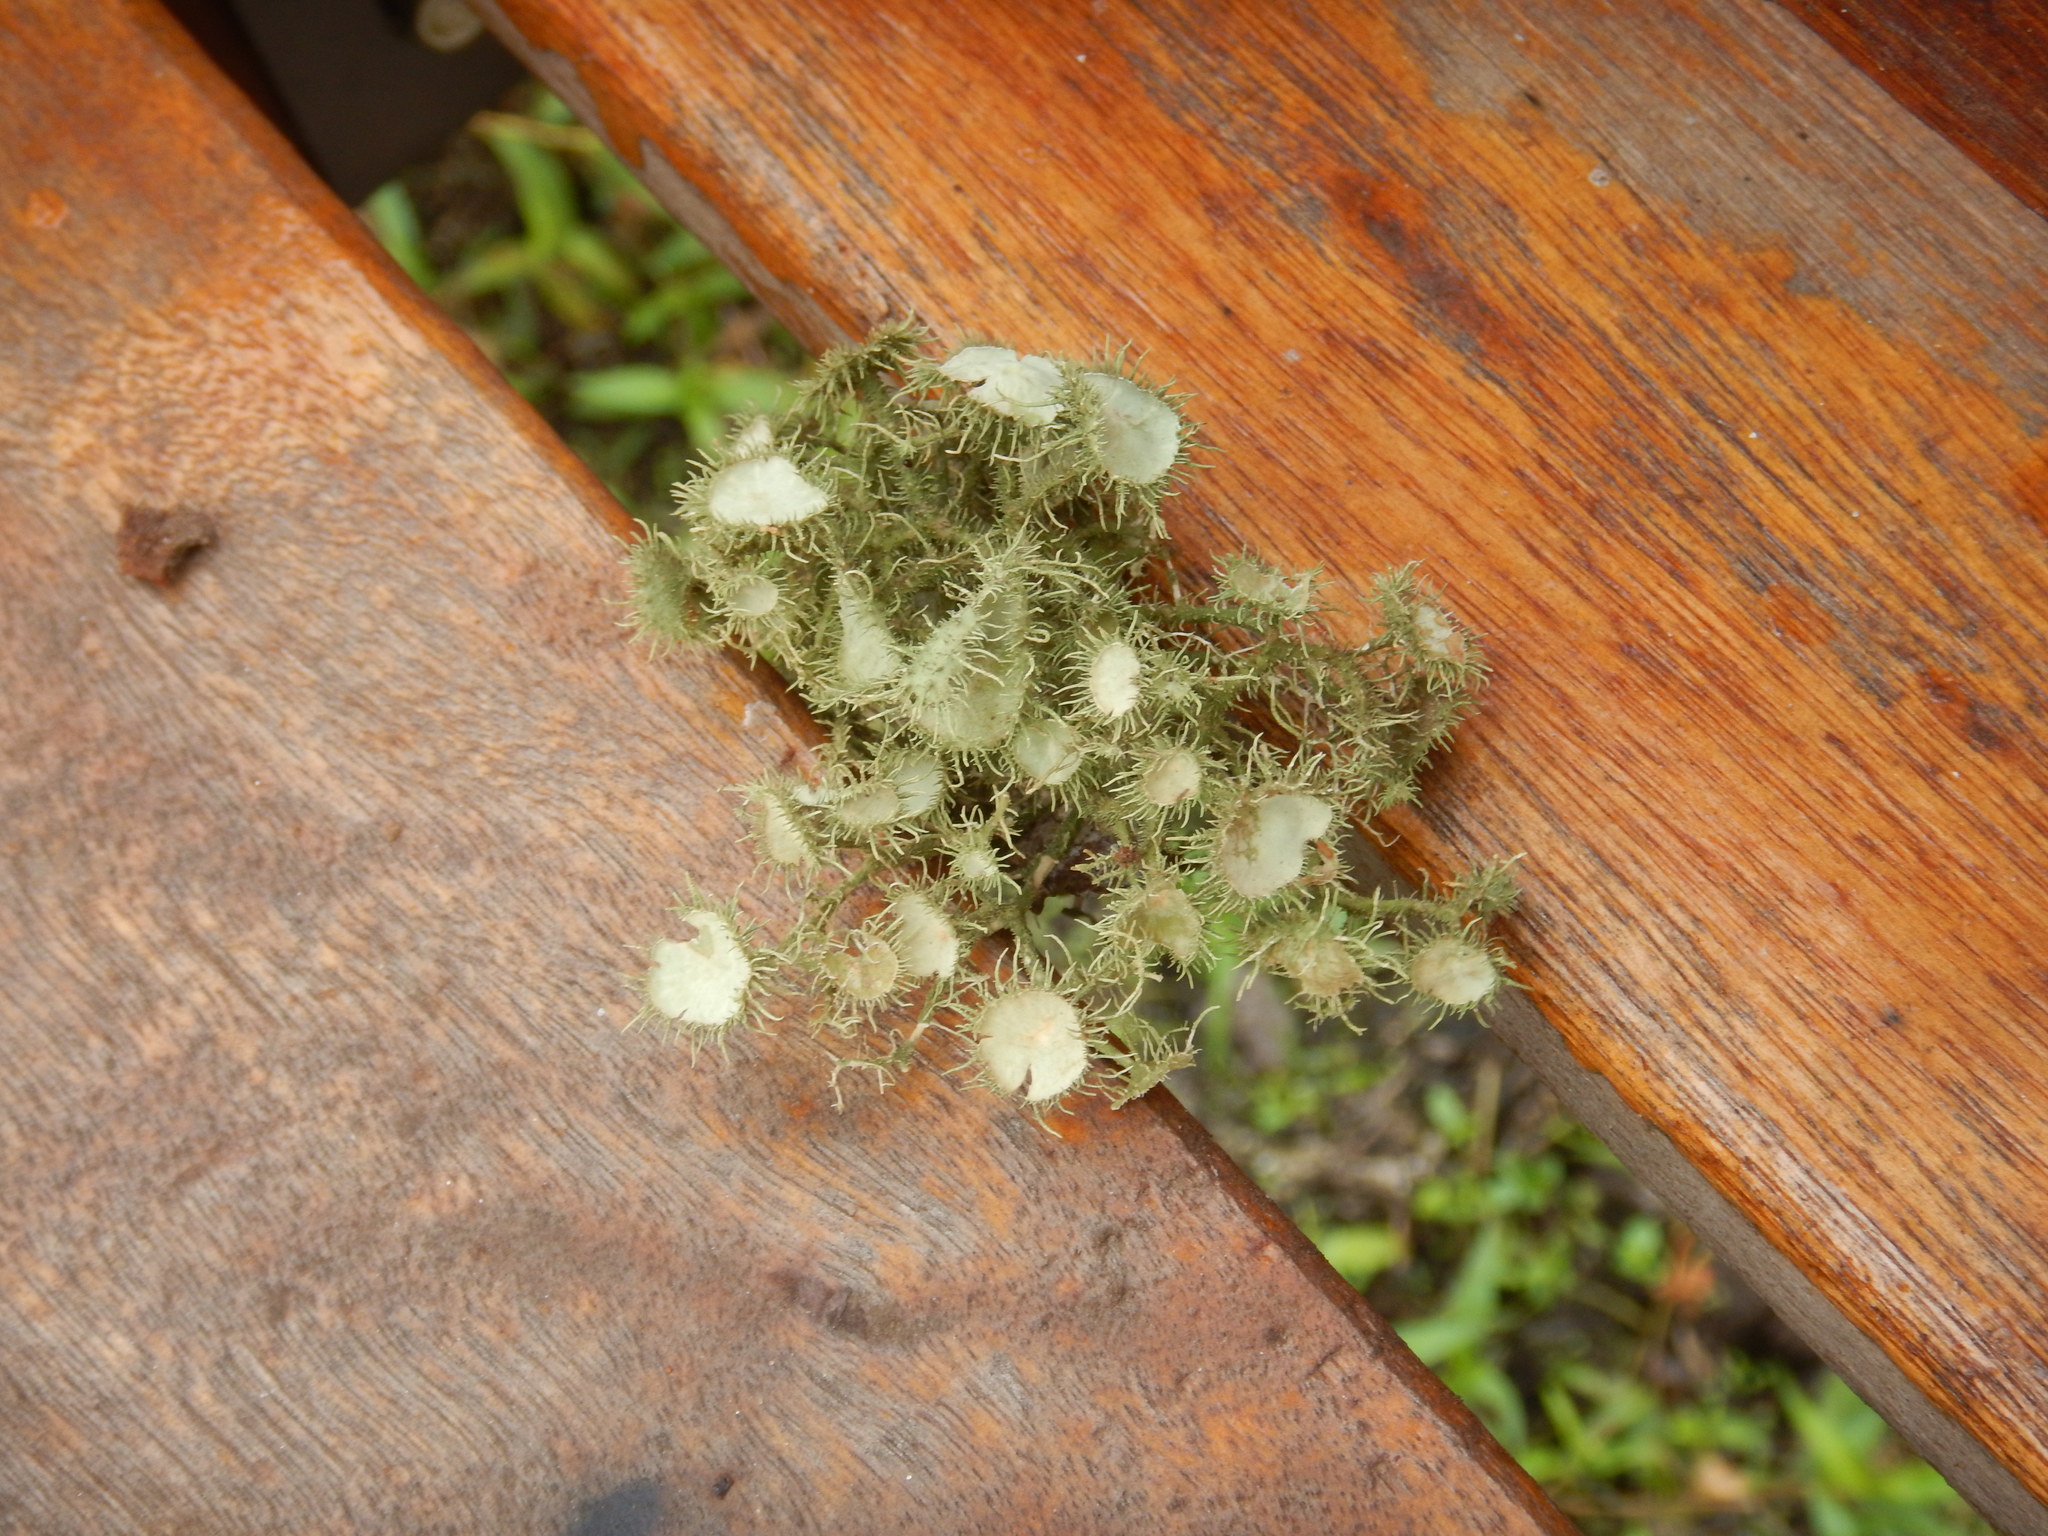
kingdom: Fungi
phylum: Ascomycota
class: Lecanoromycetes
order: Lecanorales
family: Parmeliaceae
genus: Usnea
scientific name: Usnea strigosa
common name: Bushy beard lichen
